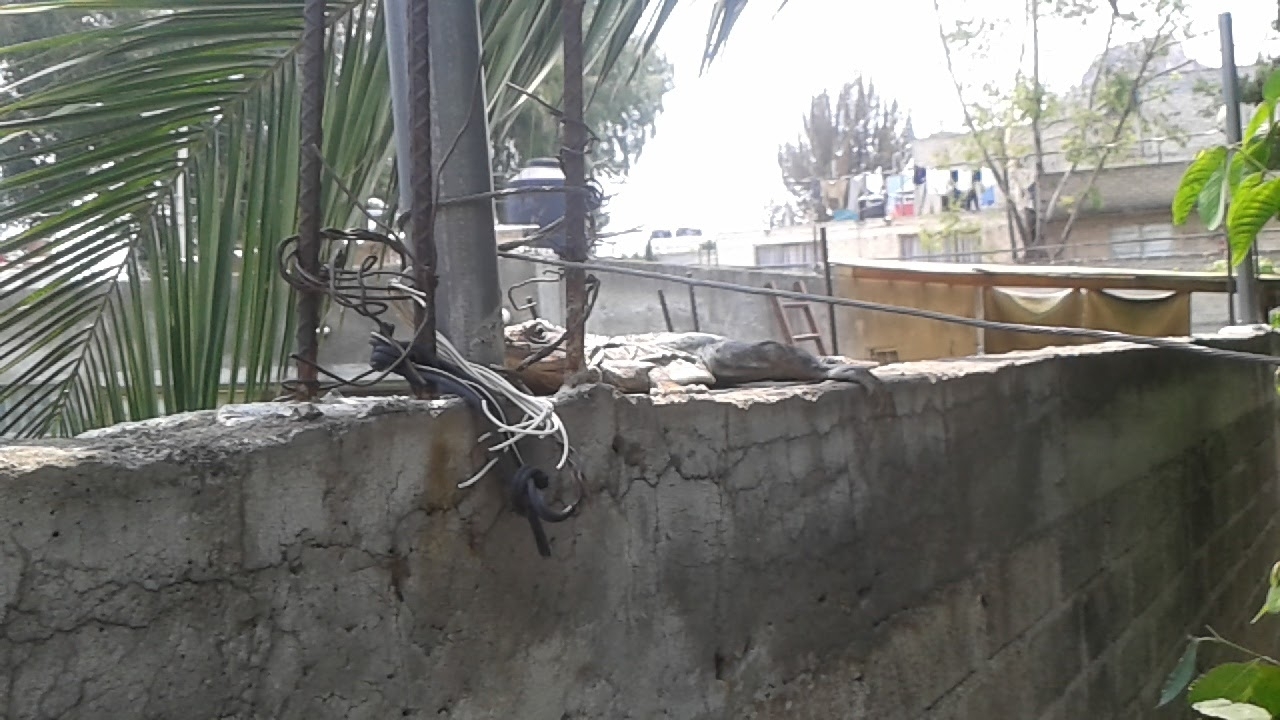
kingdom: Animalia
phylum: Chordata
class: Squamata
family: Iguanidae
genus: Ctenosaura
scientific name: Ctenosaura pectinata
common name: Guerreran spiny-tailed iguana
